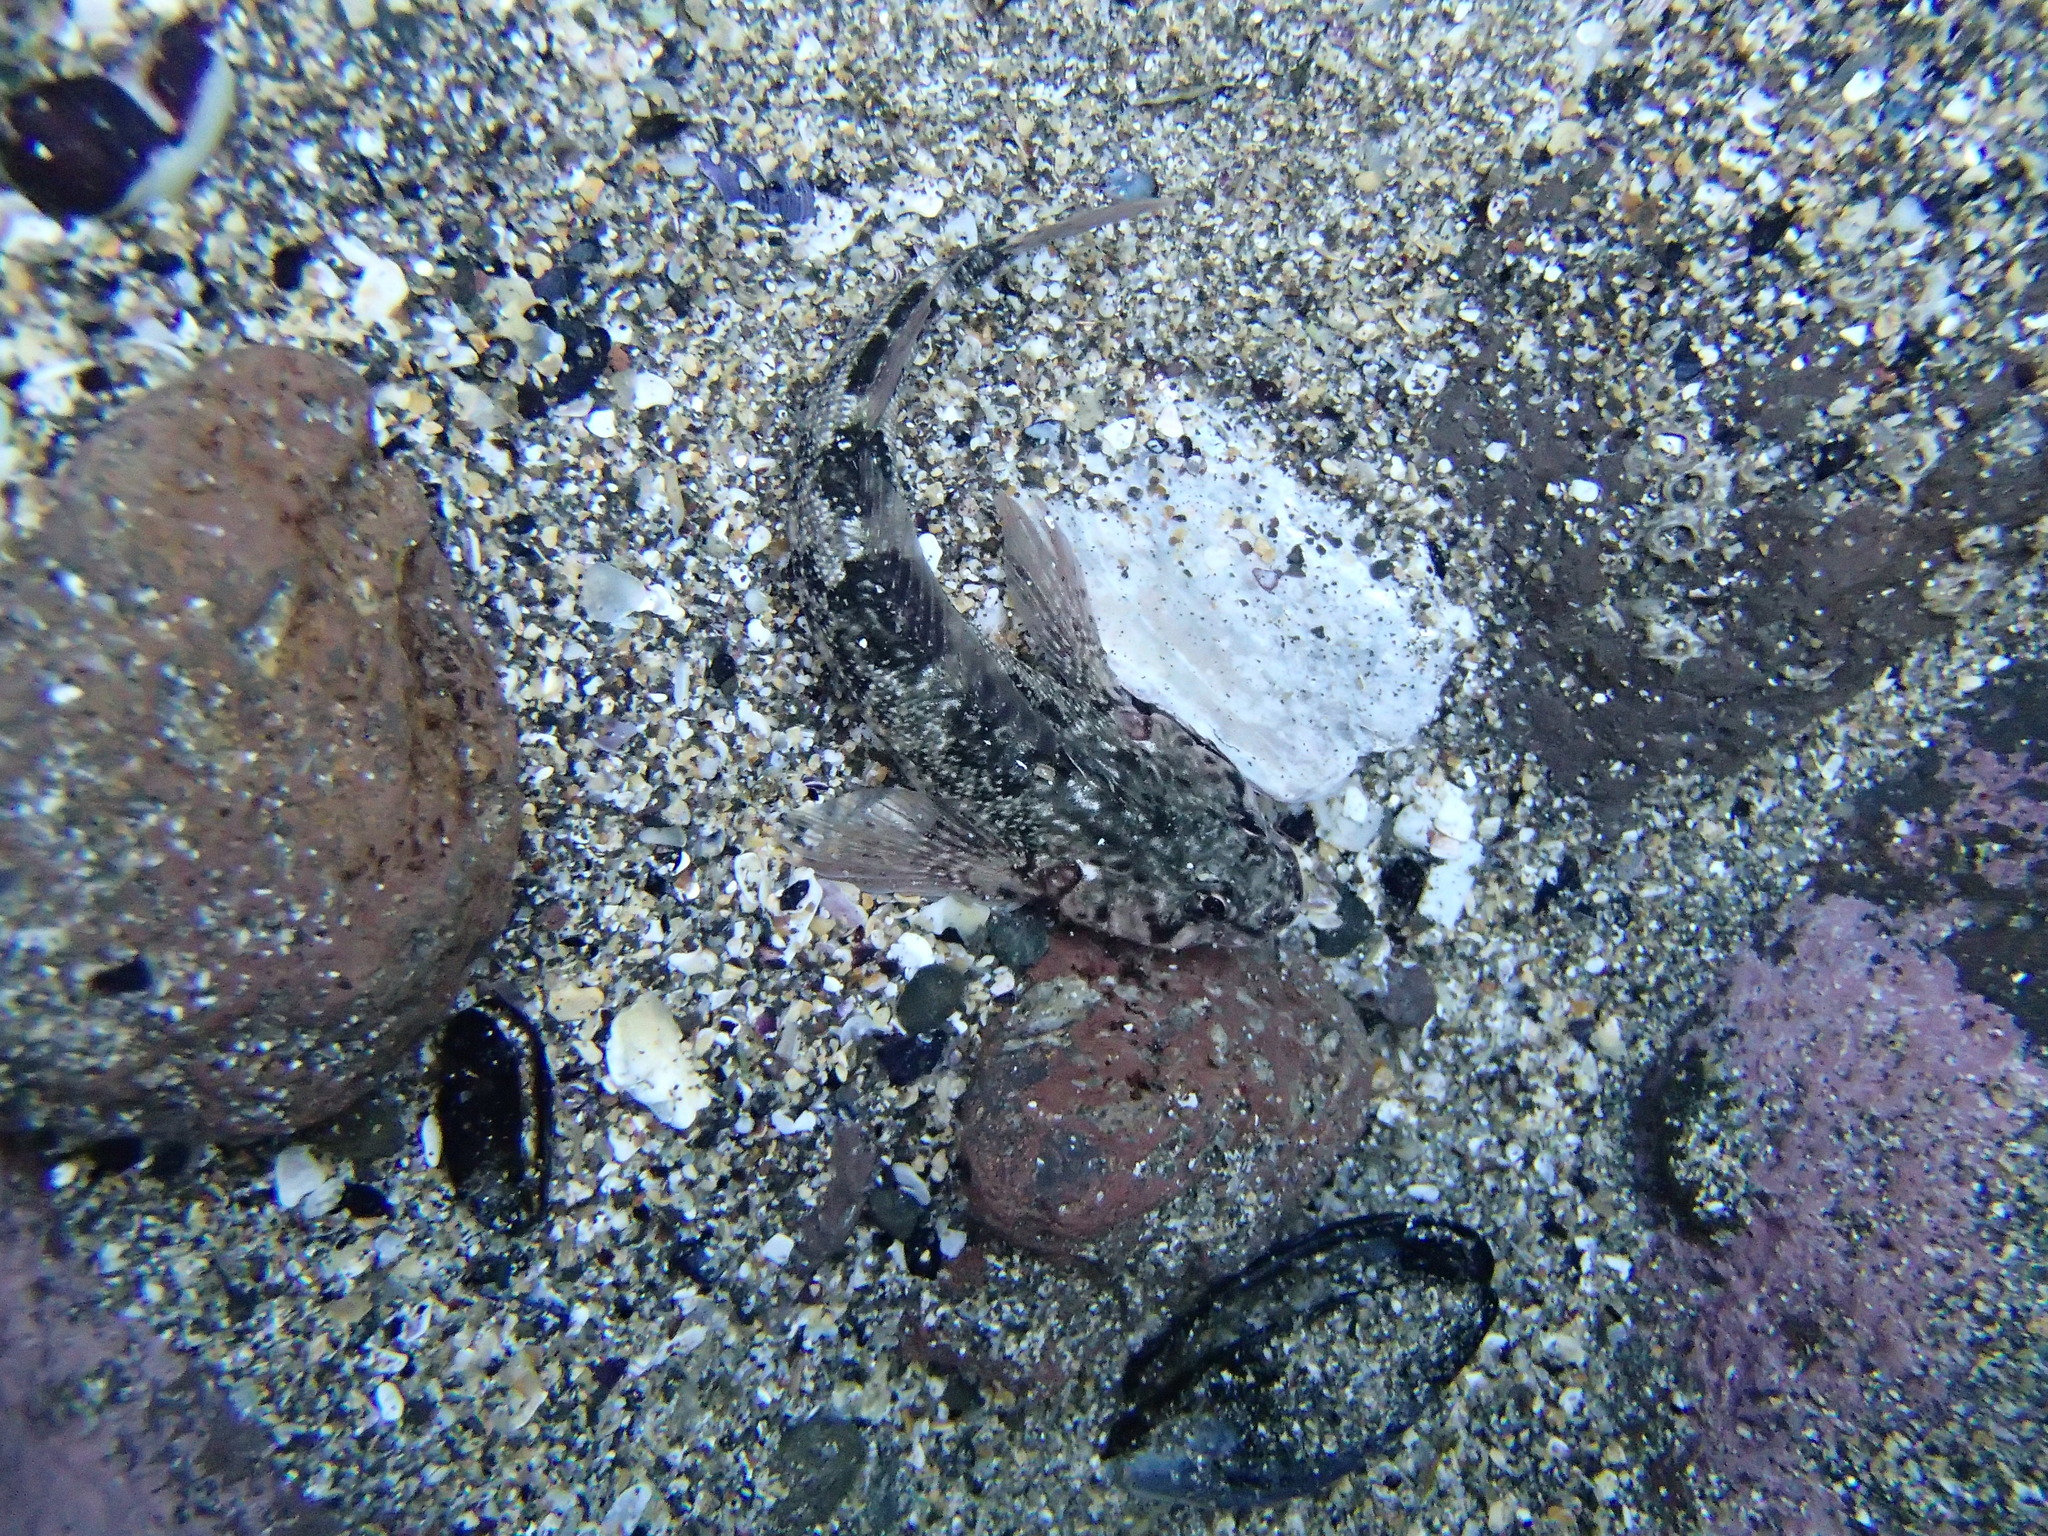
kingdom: Animalia
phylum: Chordata
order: Perciformes
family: Tripterygiidae
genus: Bellapiscis
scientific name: Bellapiscis medius
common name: Twister
